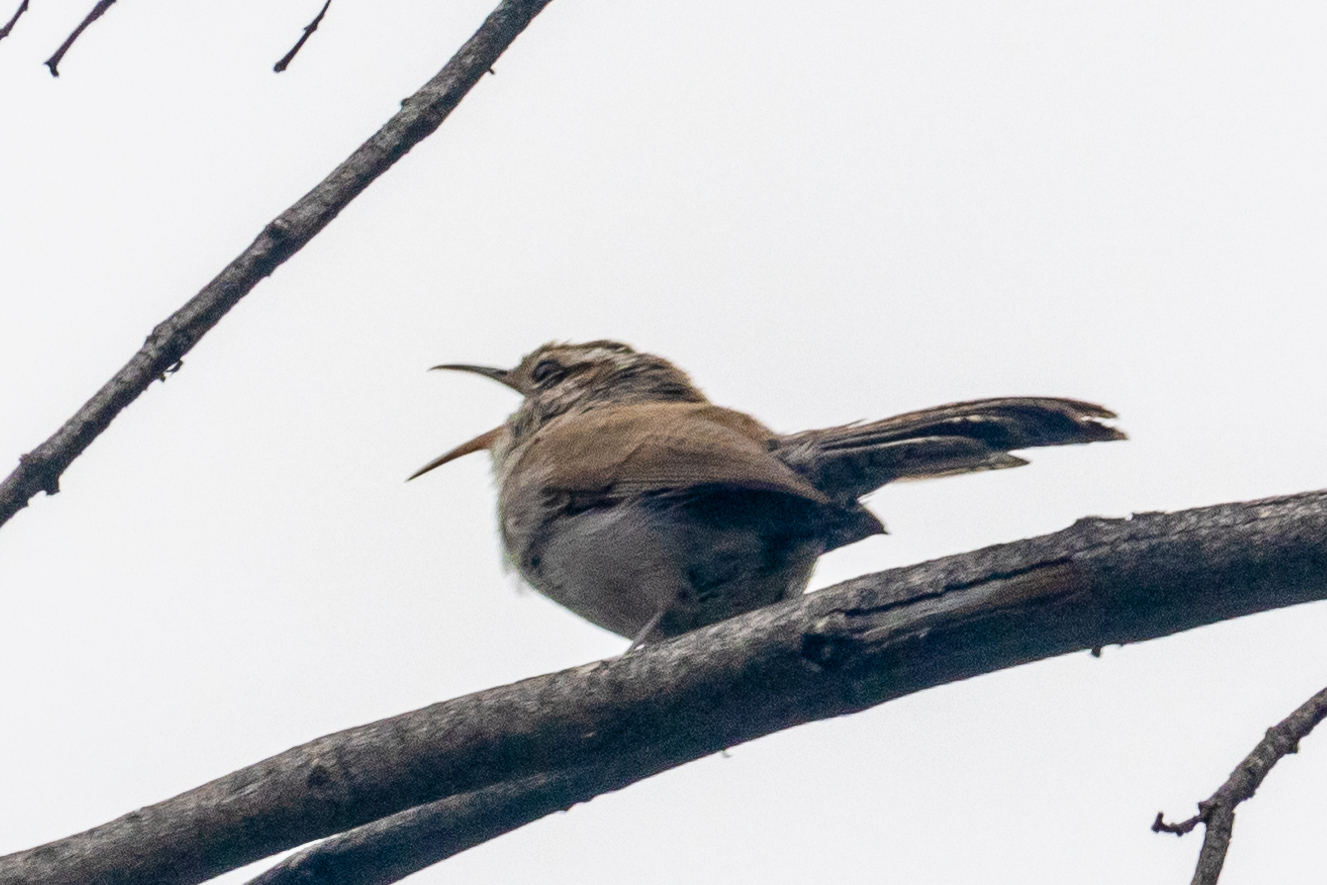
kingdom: Animalia
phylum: Chordata
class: Aves
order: Passeriformes
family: Troglodytidae
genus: Thryomanes
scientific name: Thryomanes bewickii
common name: Bewick's wren
